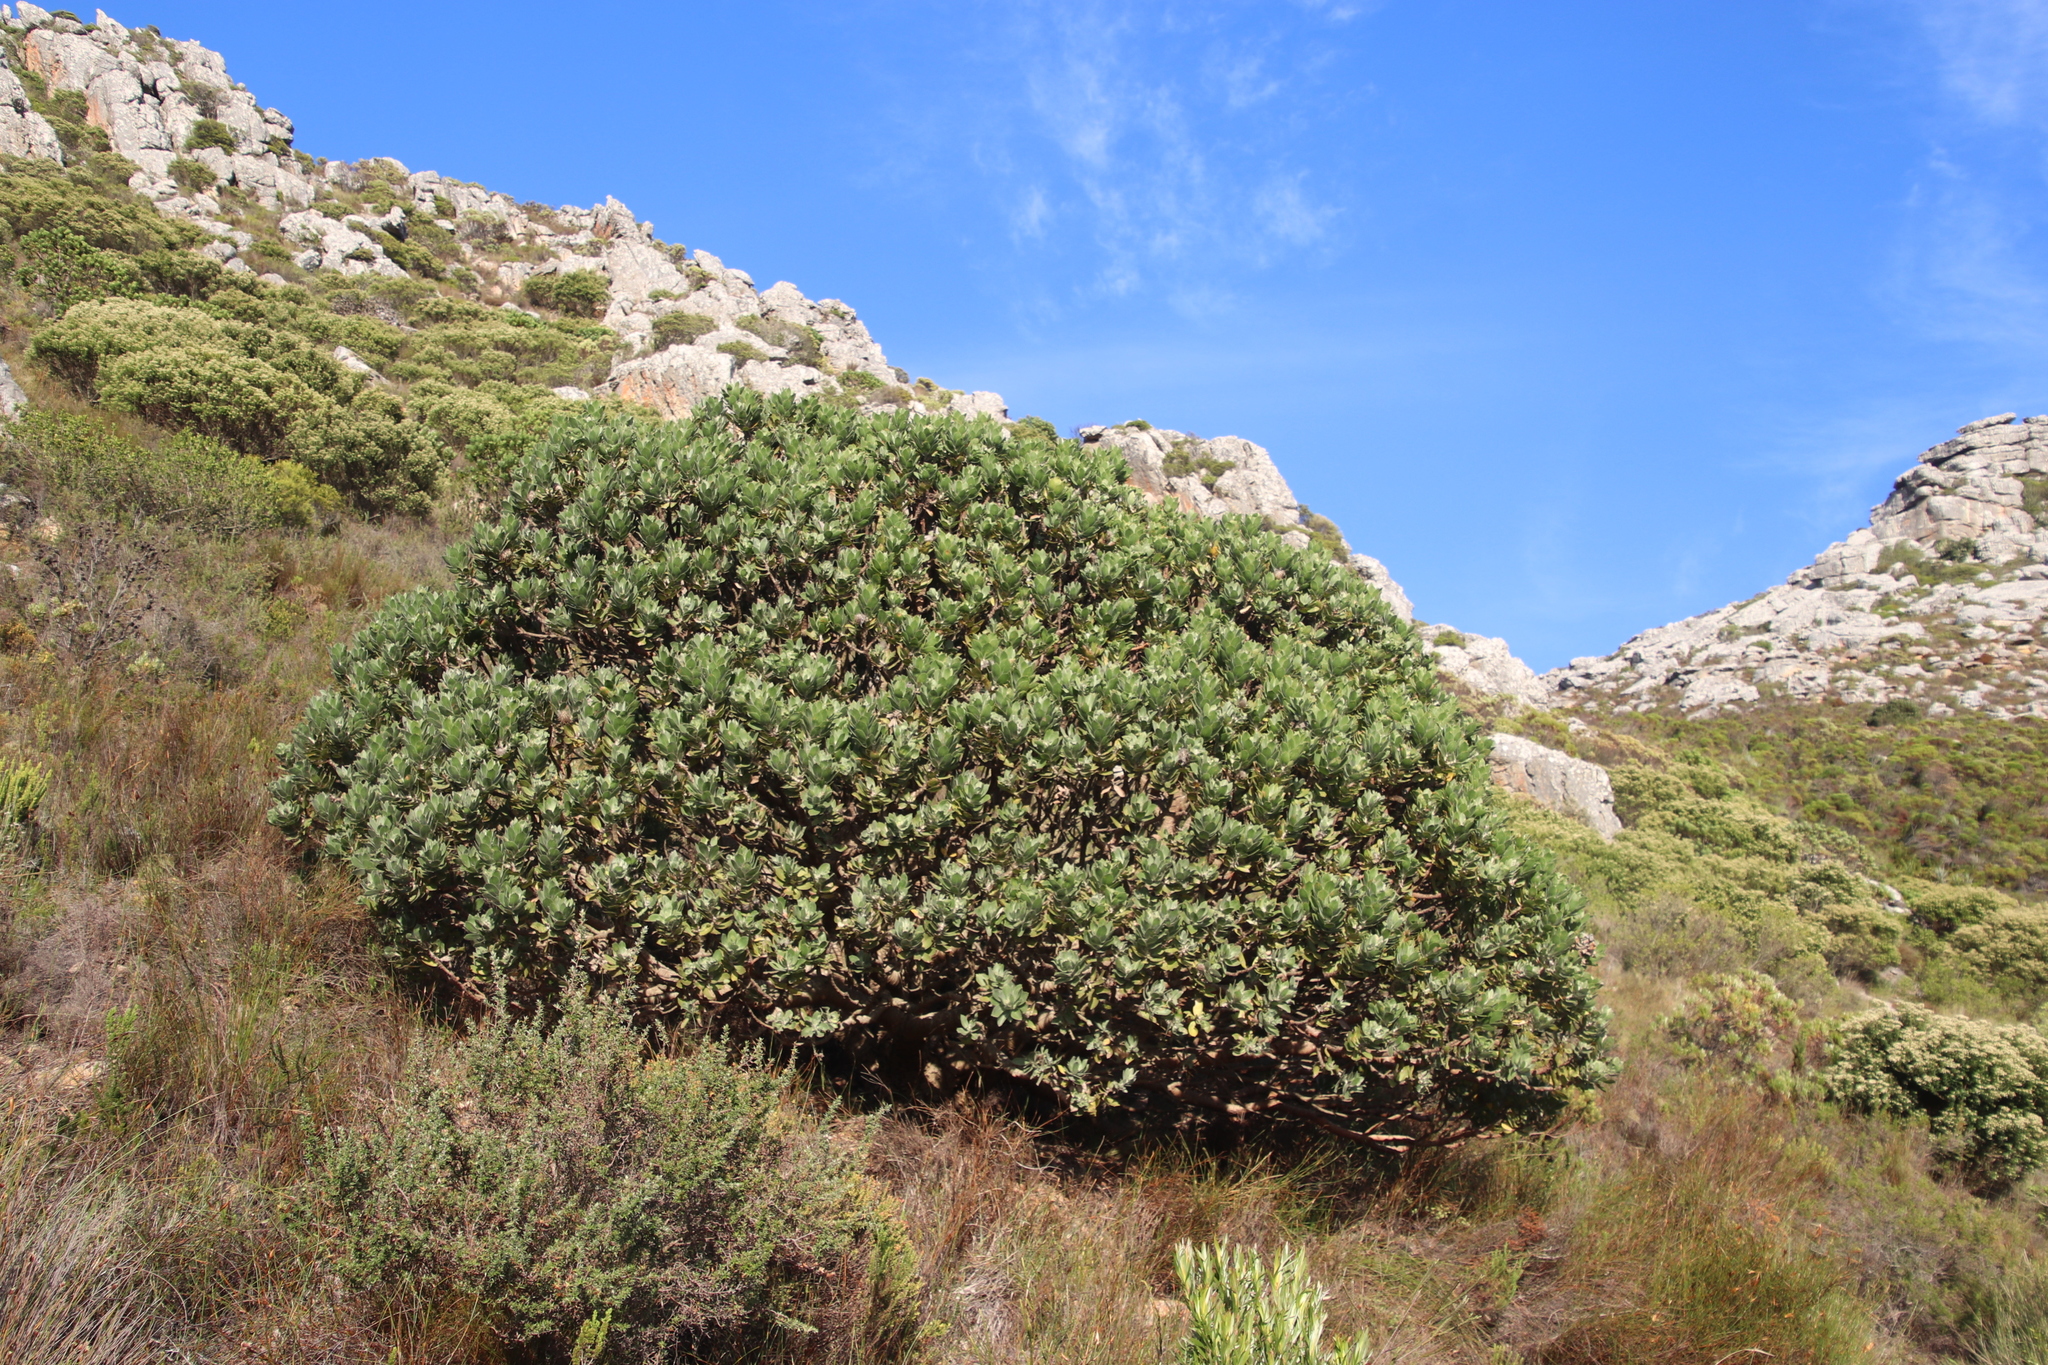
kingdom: Plantae
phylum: Tracheophyta
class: Magnoliopsida
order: Proteales
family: Proteaceae
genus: Leucospermum
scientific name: Leucospermum conocarpodendron
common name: Tree pincushion
